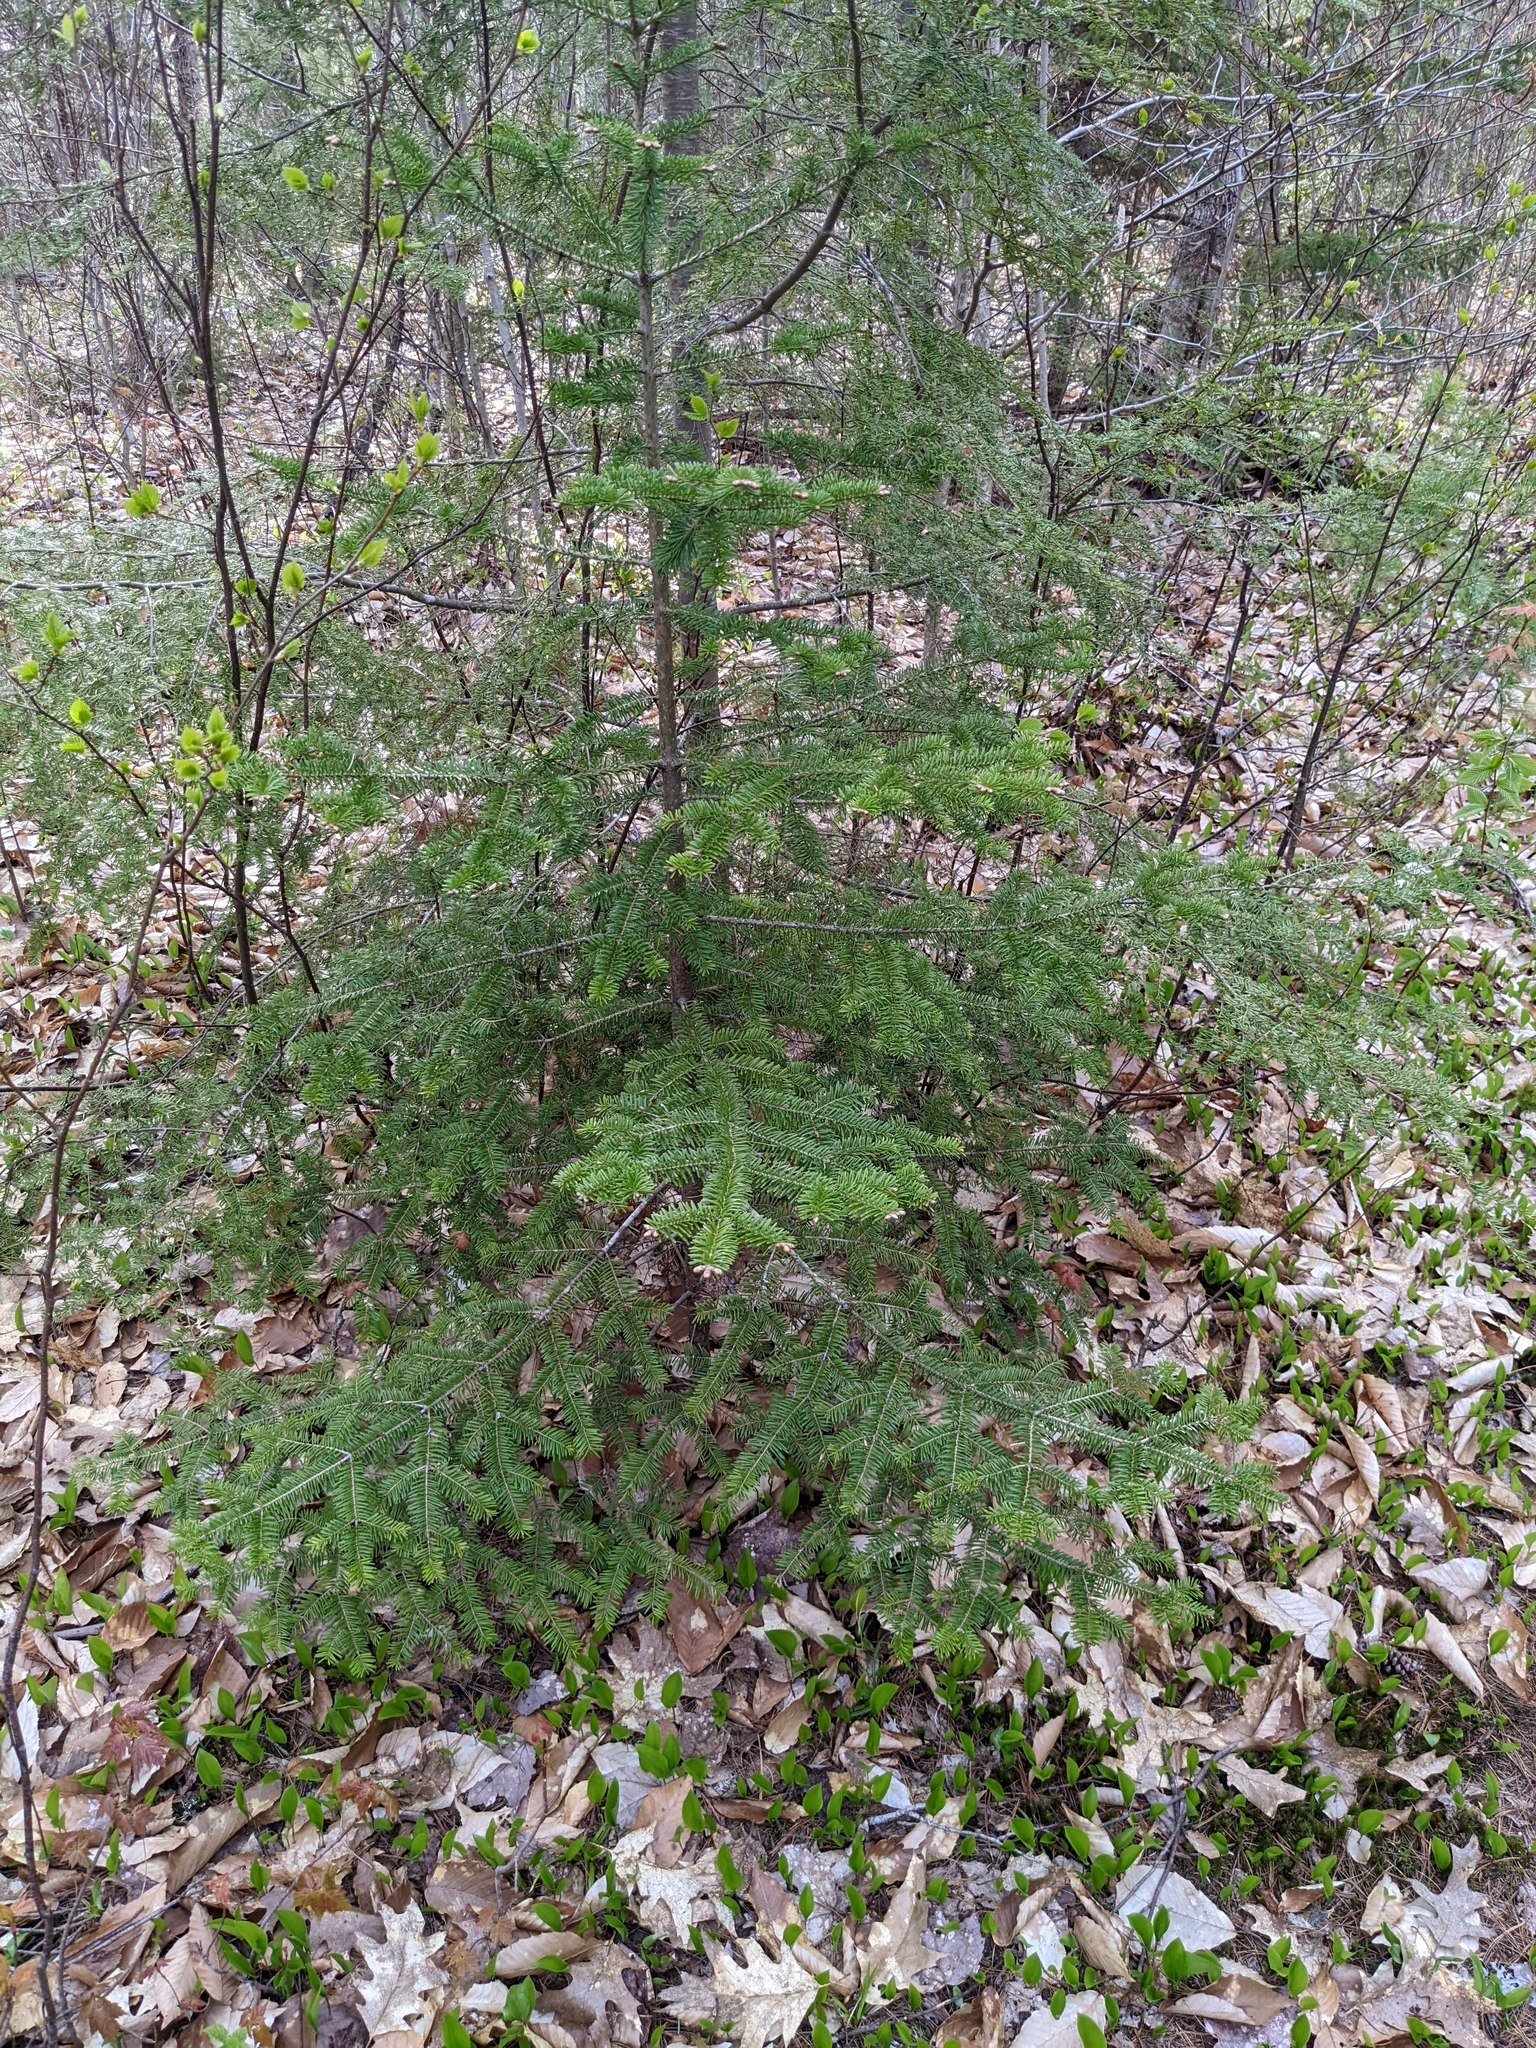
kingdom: Plantae
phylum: Tracheophyta
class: Pinopsida
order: Pinales
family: Pinaceae
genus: Abies
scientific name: Abies balsamea
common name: Balsam fir
